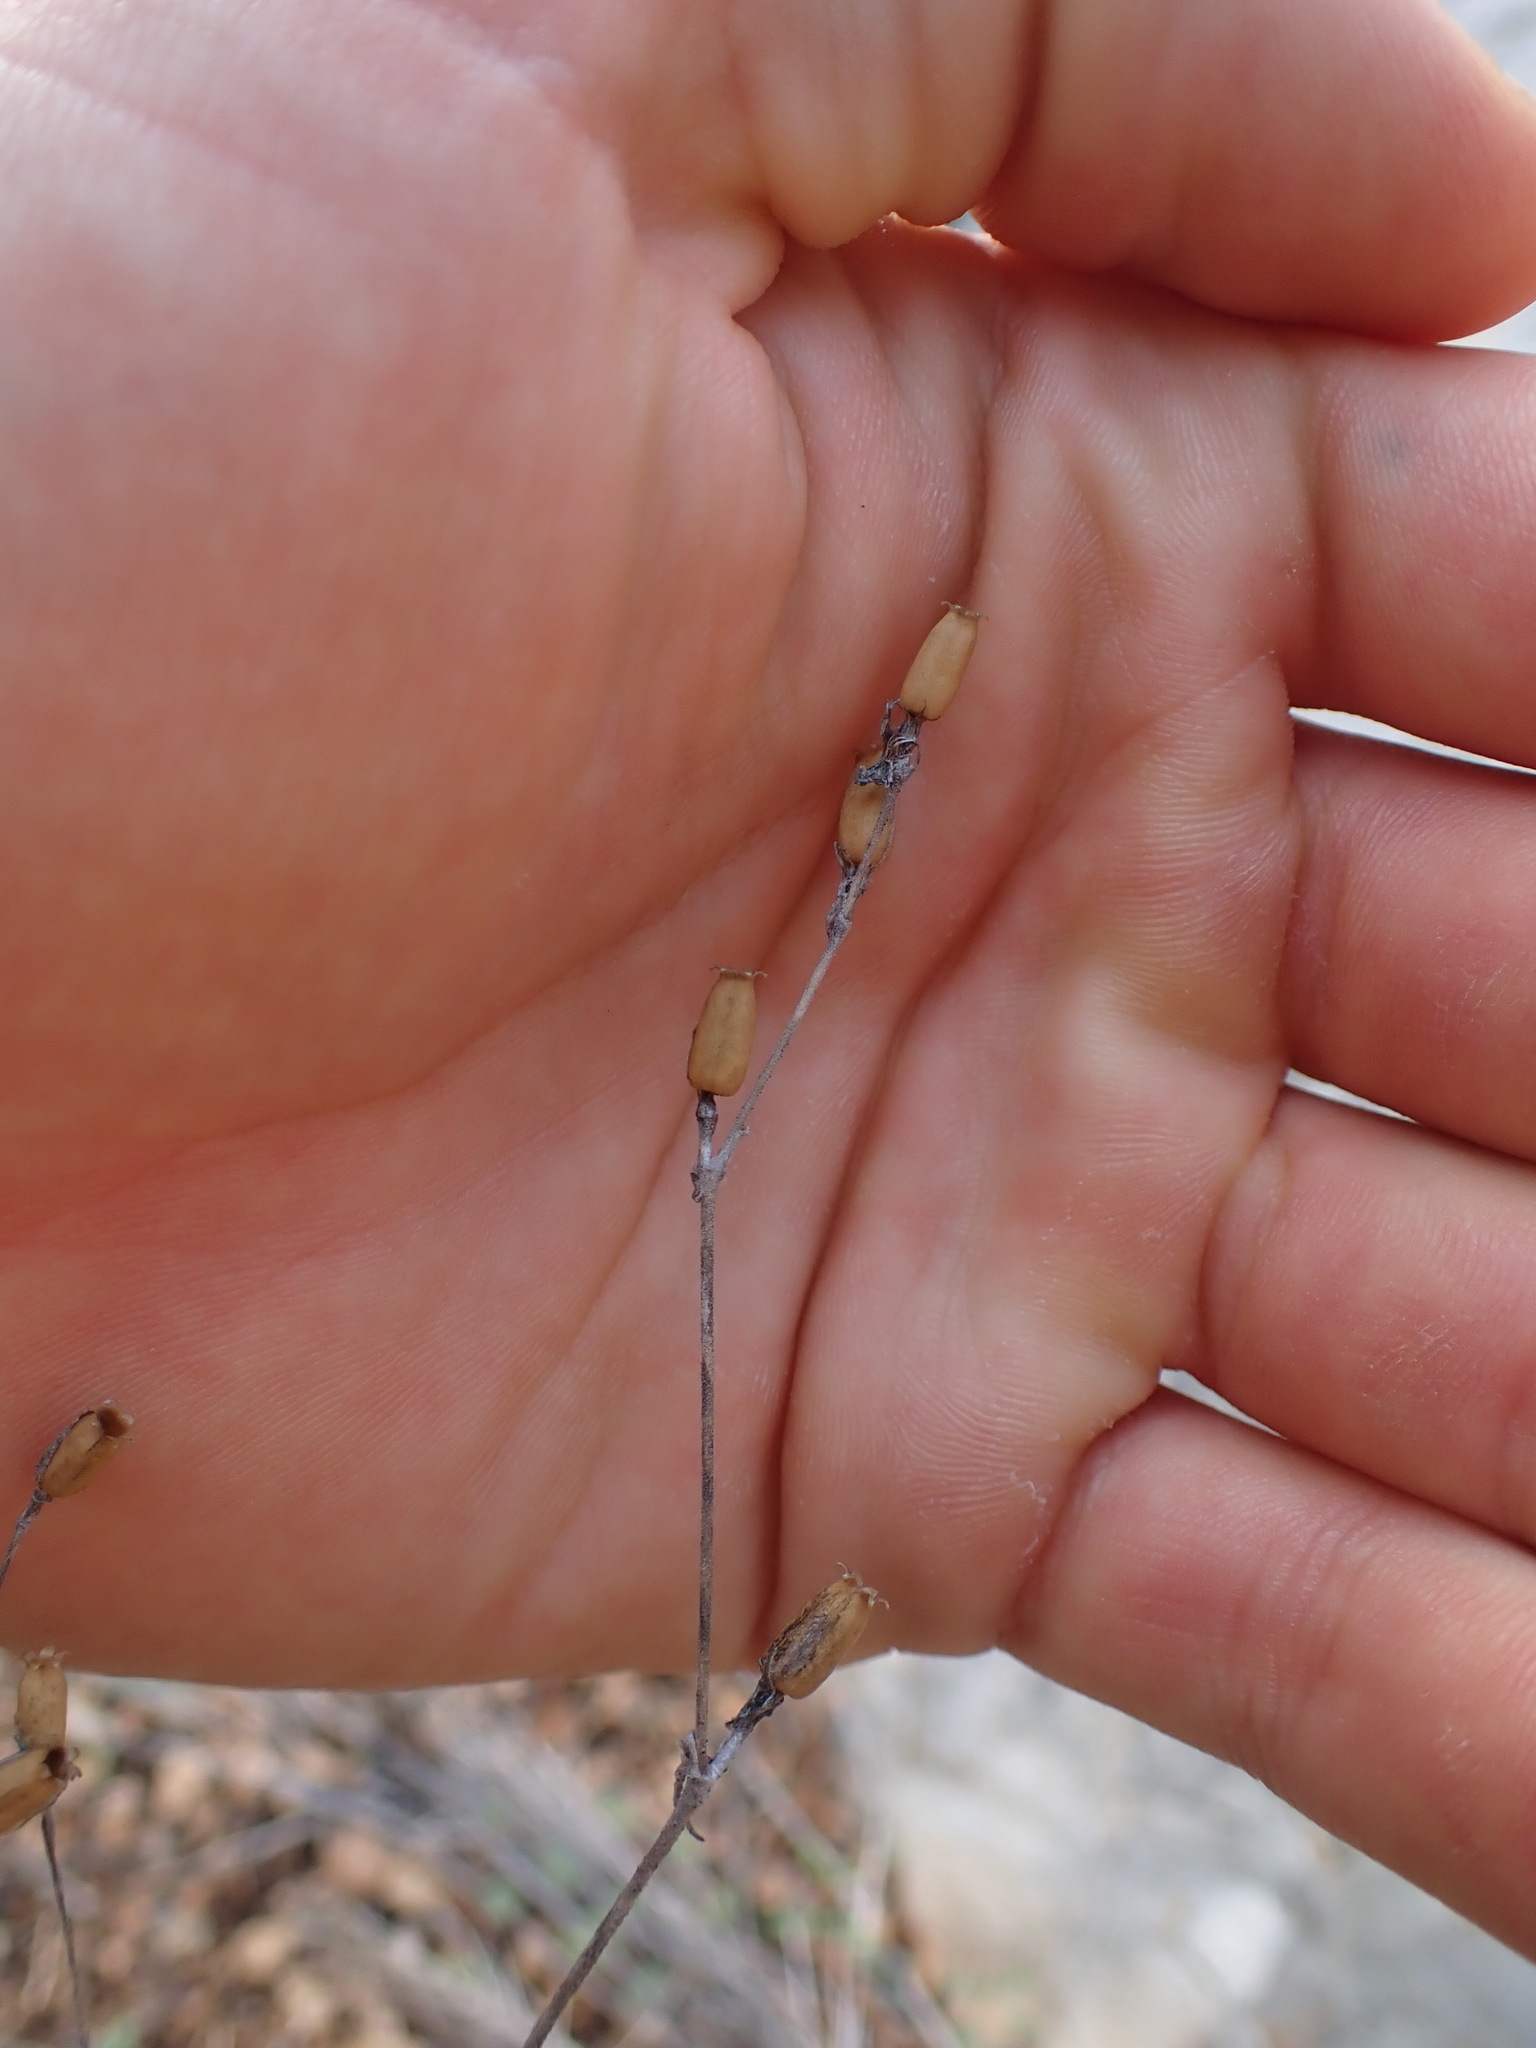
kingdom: Plantae
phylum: Tracheophyta
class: Magnoliopsida
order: Caryophyllales
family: Caryophyllaceae
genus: Silene
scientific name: Silene nocturna
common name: Mediterranean catchfly
